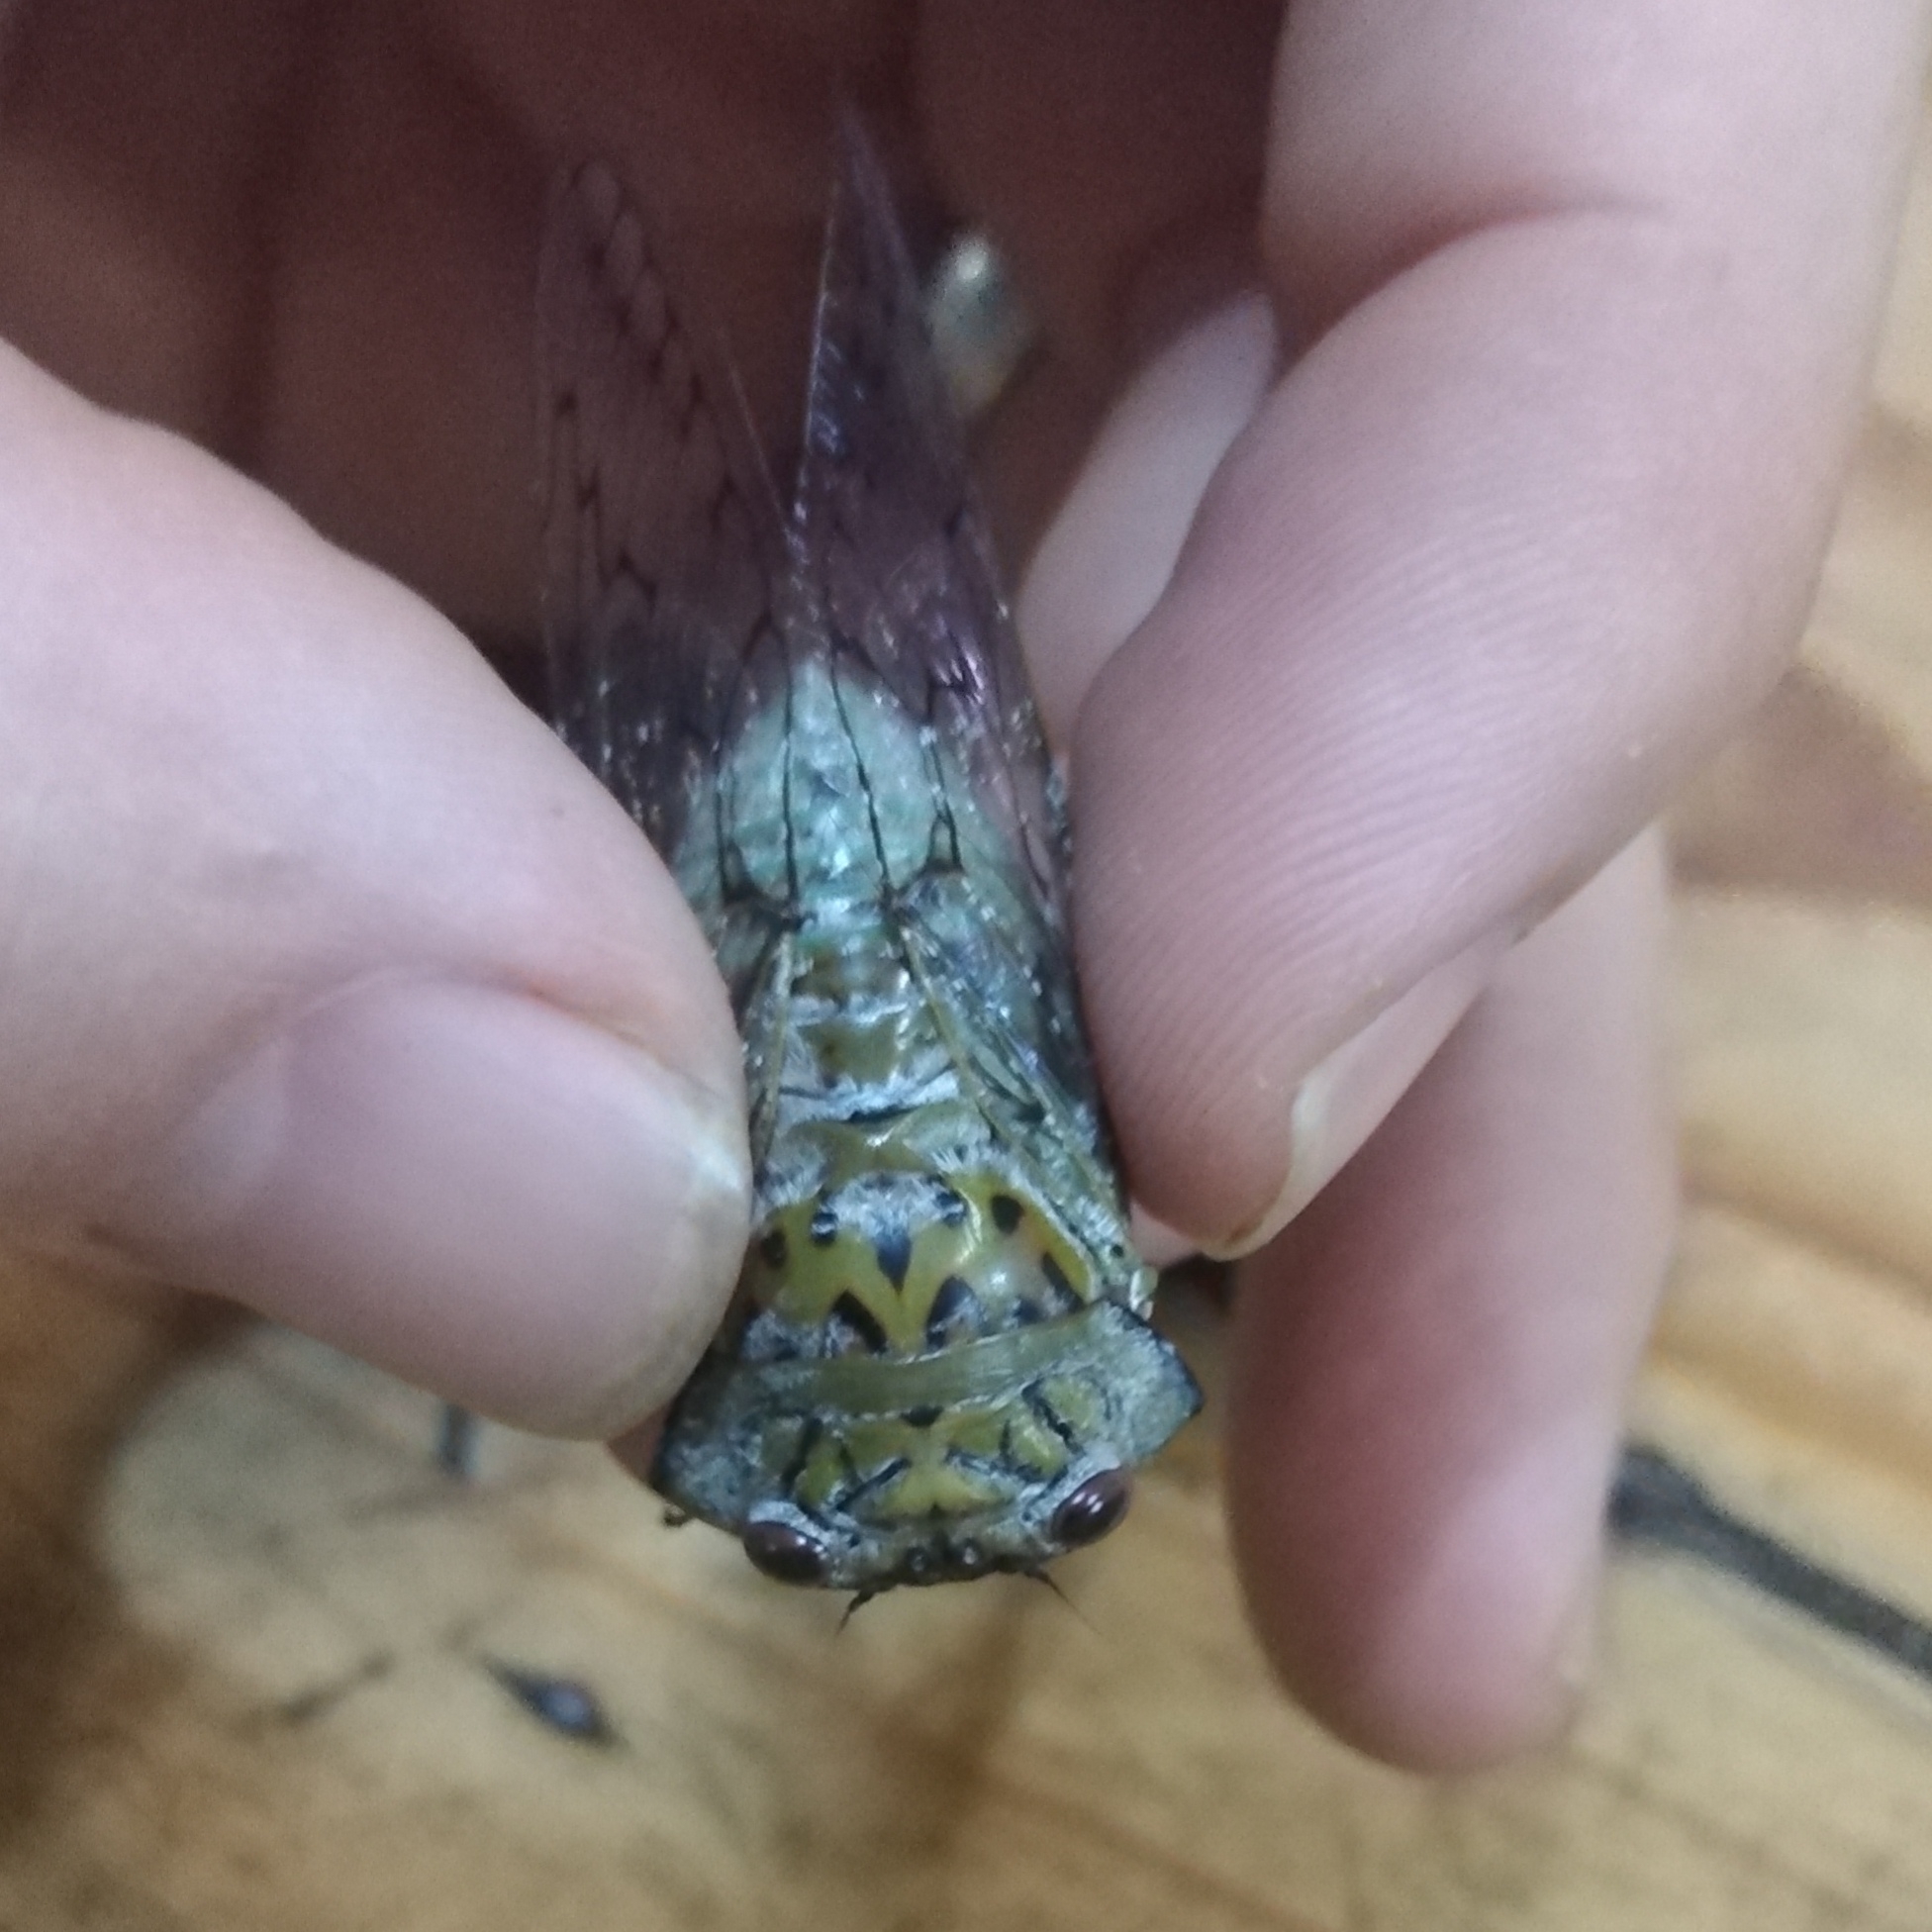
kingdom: Animalia
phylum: Arthropoda
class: Insecta
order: Hemiptera
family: Cicadidae
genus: Oxypleura
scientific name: Oxypleura lenihani
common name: Coastal sharpcollar cicada
